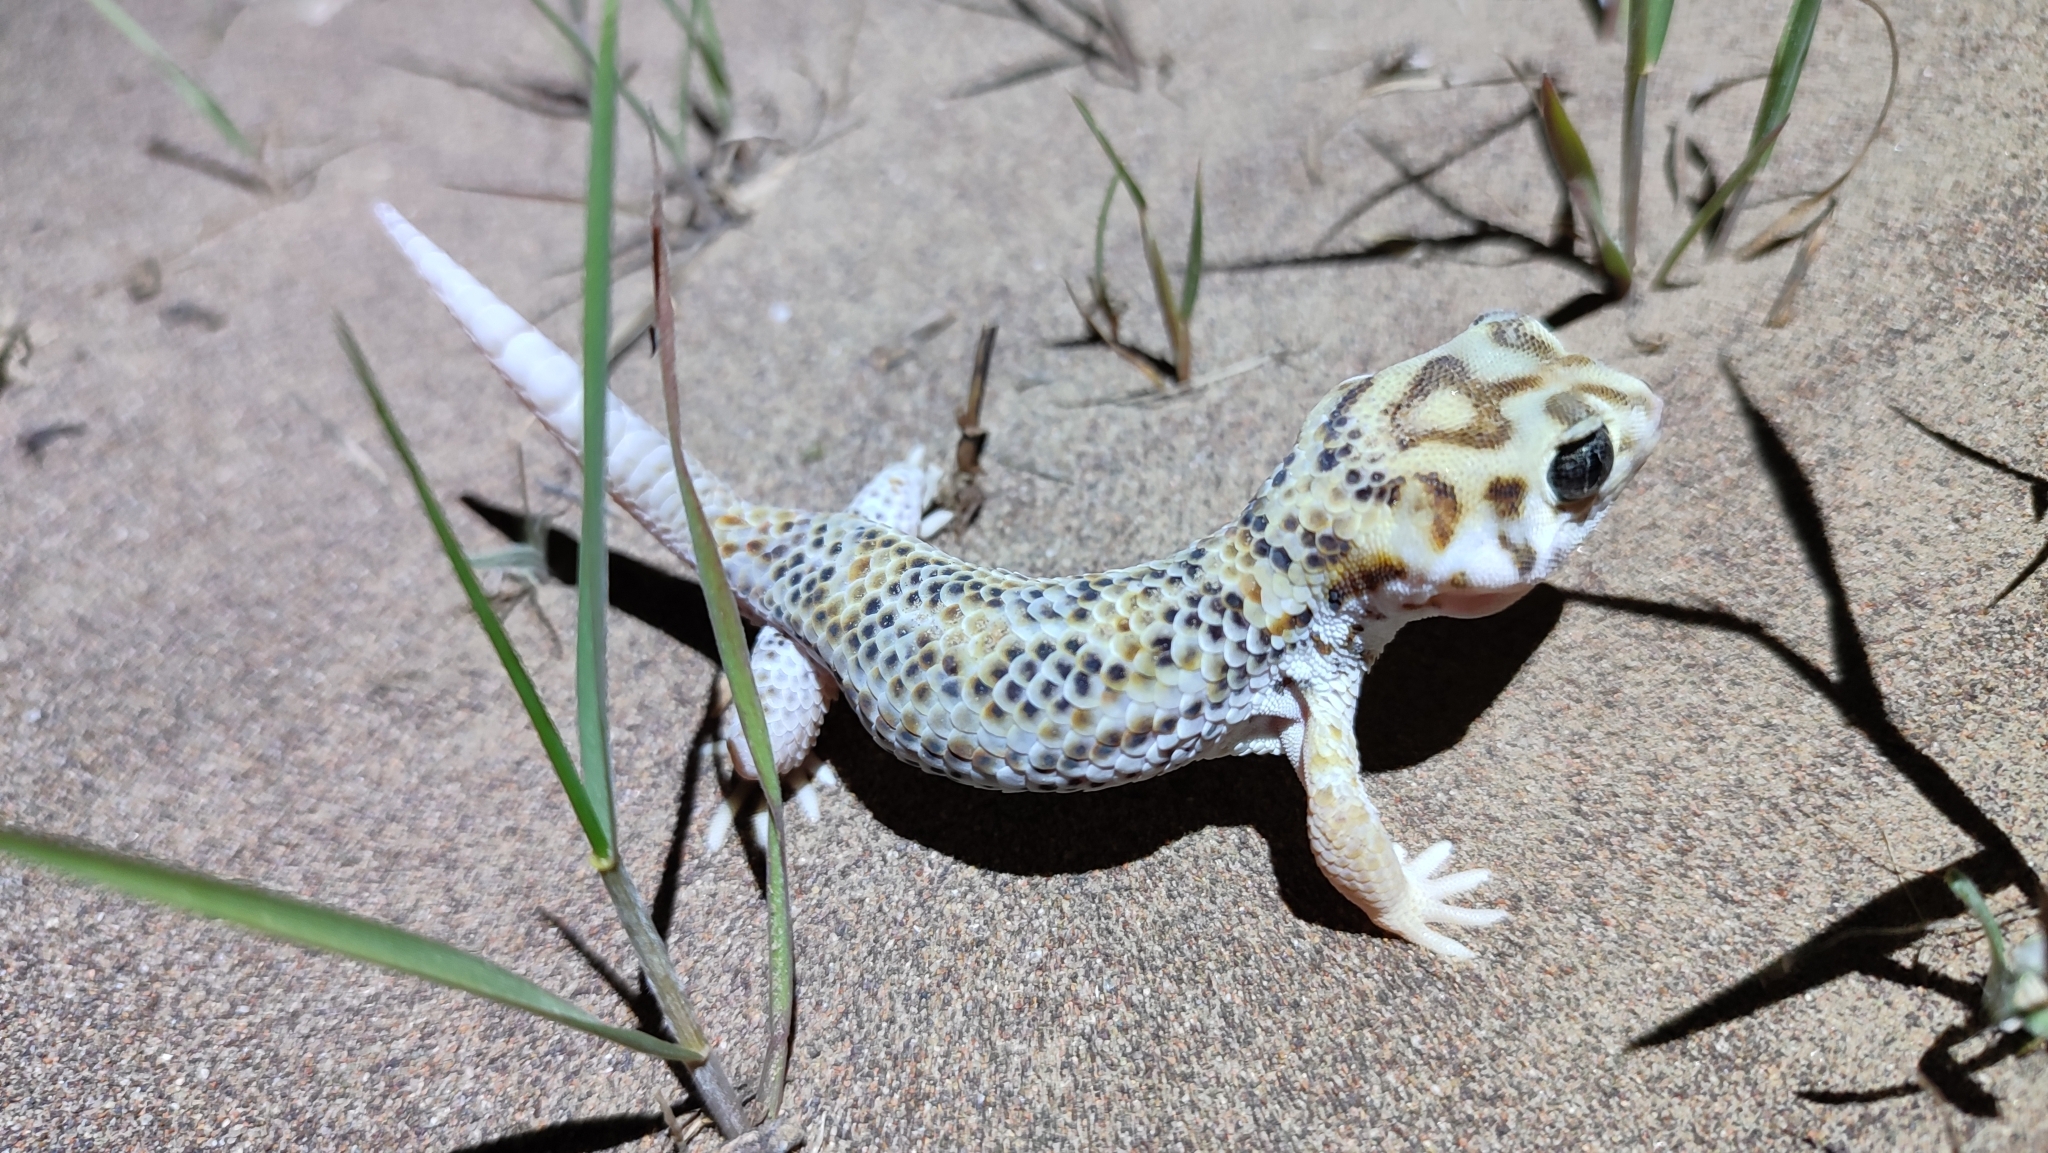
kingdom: Animalia
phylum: Chordata
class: Squamata
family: Sphaerodactylidae
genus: Teratoscincus
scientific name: Teratoscincus scincus
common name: Common wonder gecko
